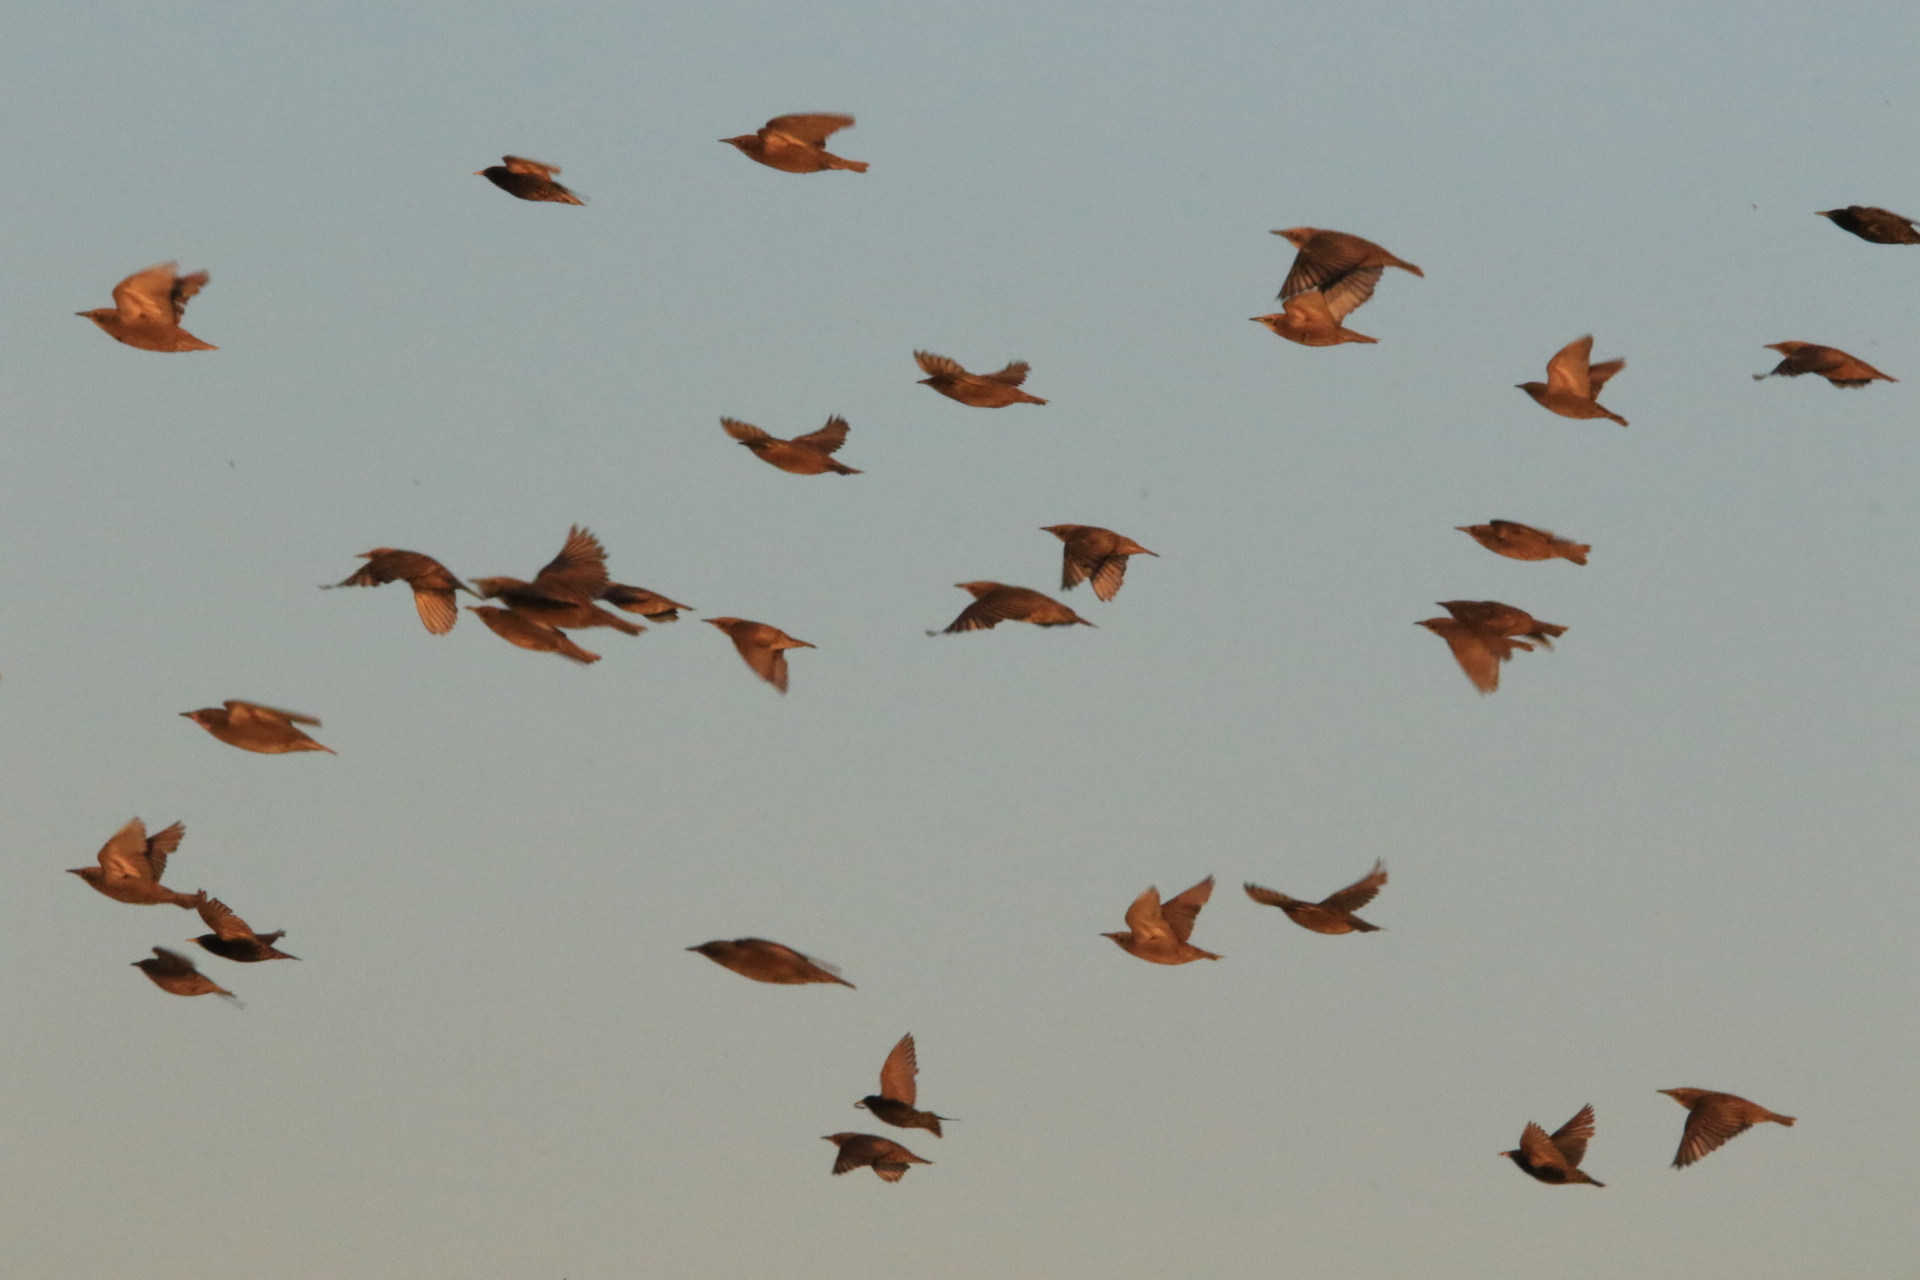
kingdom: Animalia
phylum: Chordata
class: Aves
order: Passeriformes
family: Sturnidae
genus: Sturnus
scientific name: Sturnus vulgaris
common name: Common starling
